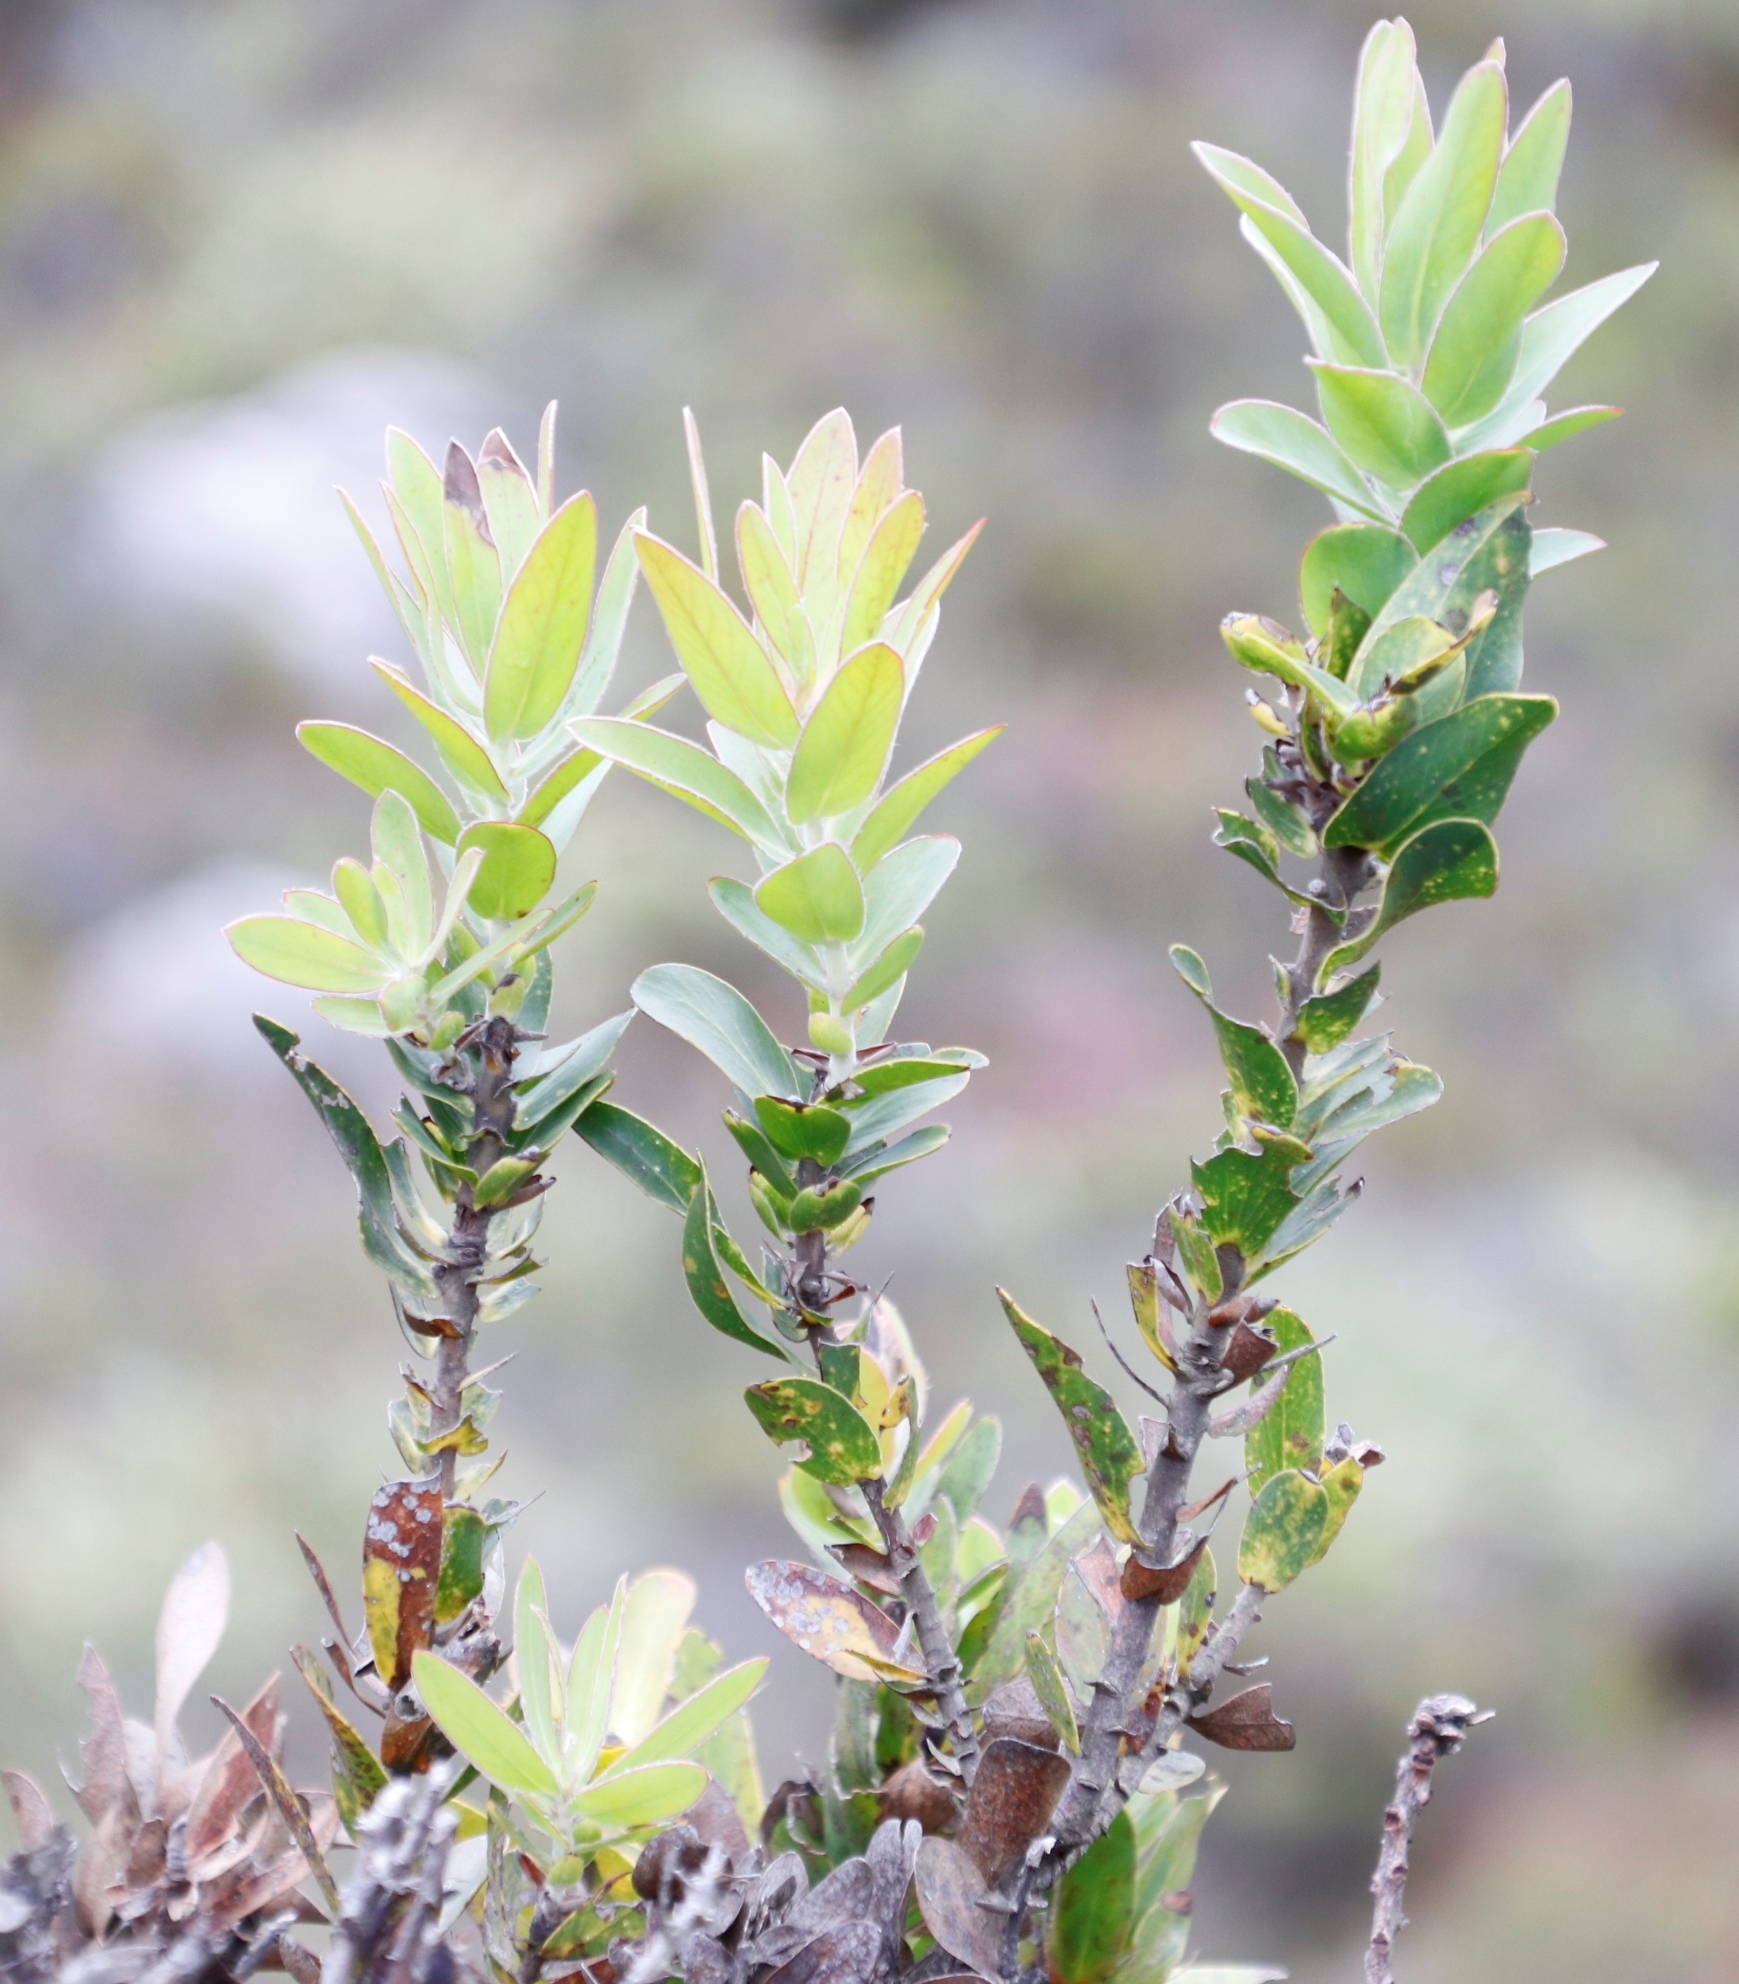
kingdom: Plantae
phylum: Tracheophyta
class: Magnoliopsida
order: Proteales
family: Proteaceae
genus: Protea
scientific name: Protea compacta
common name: Bot river protea
